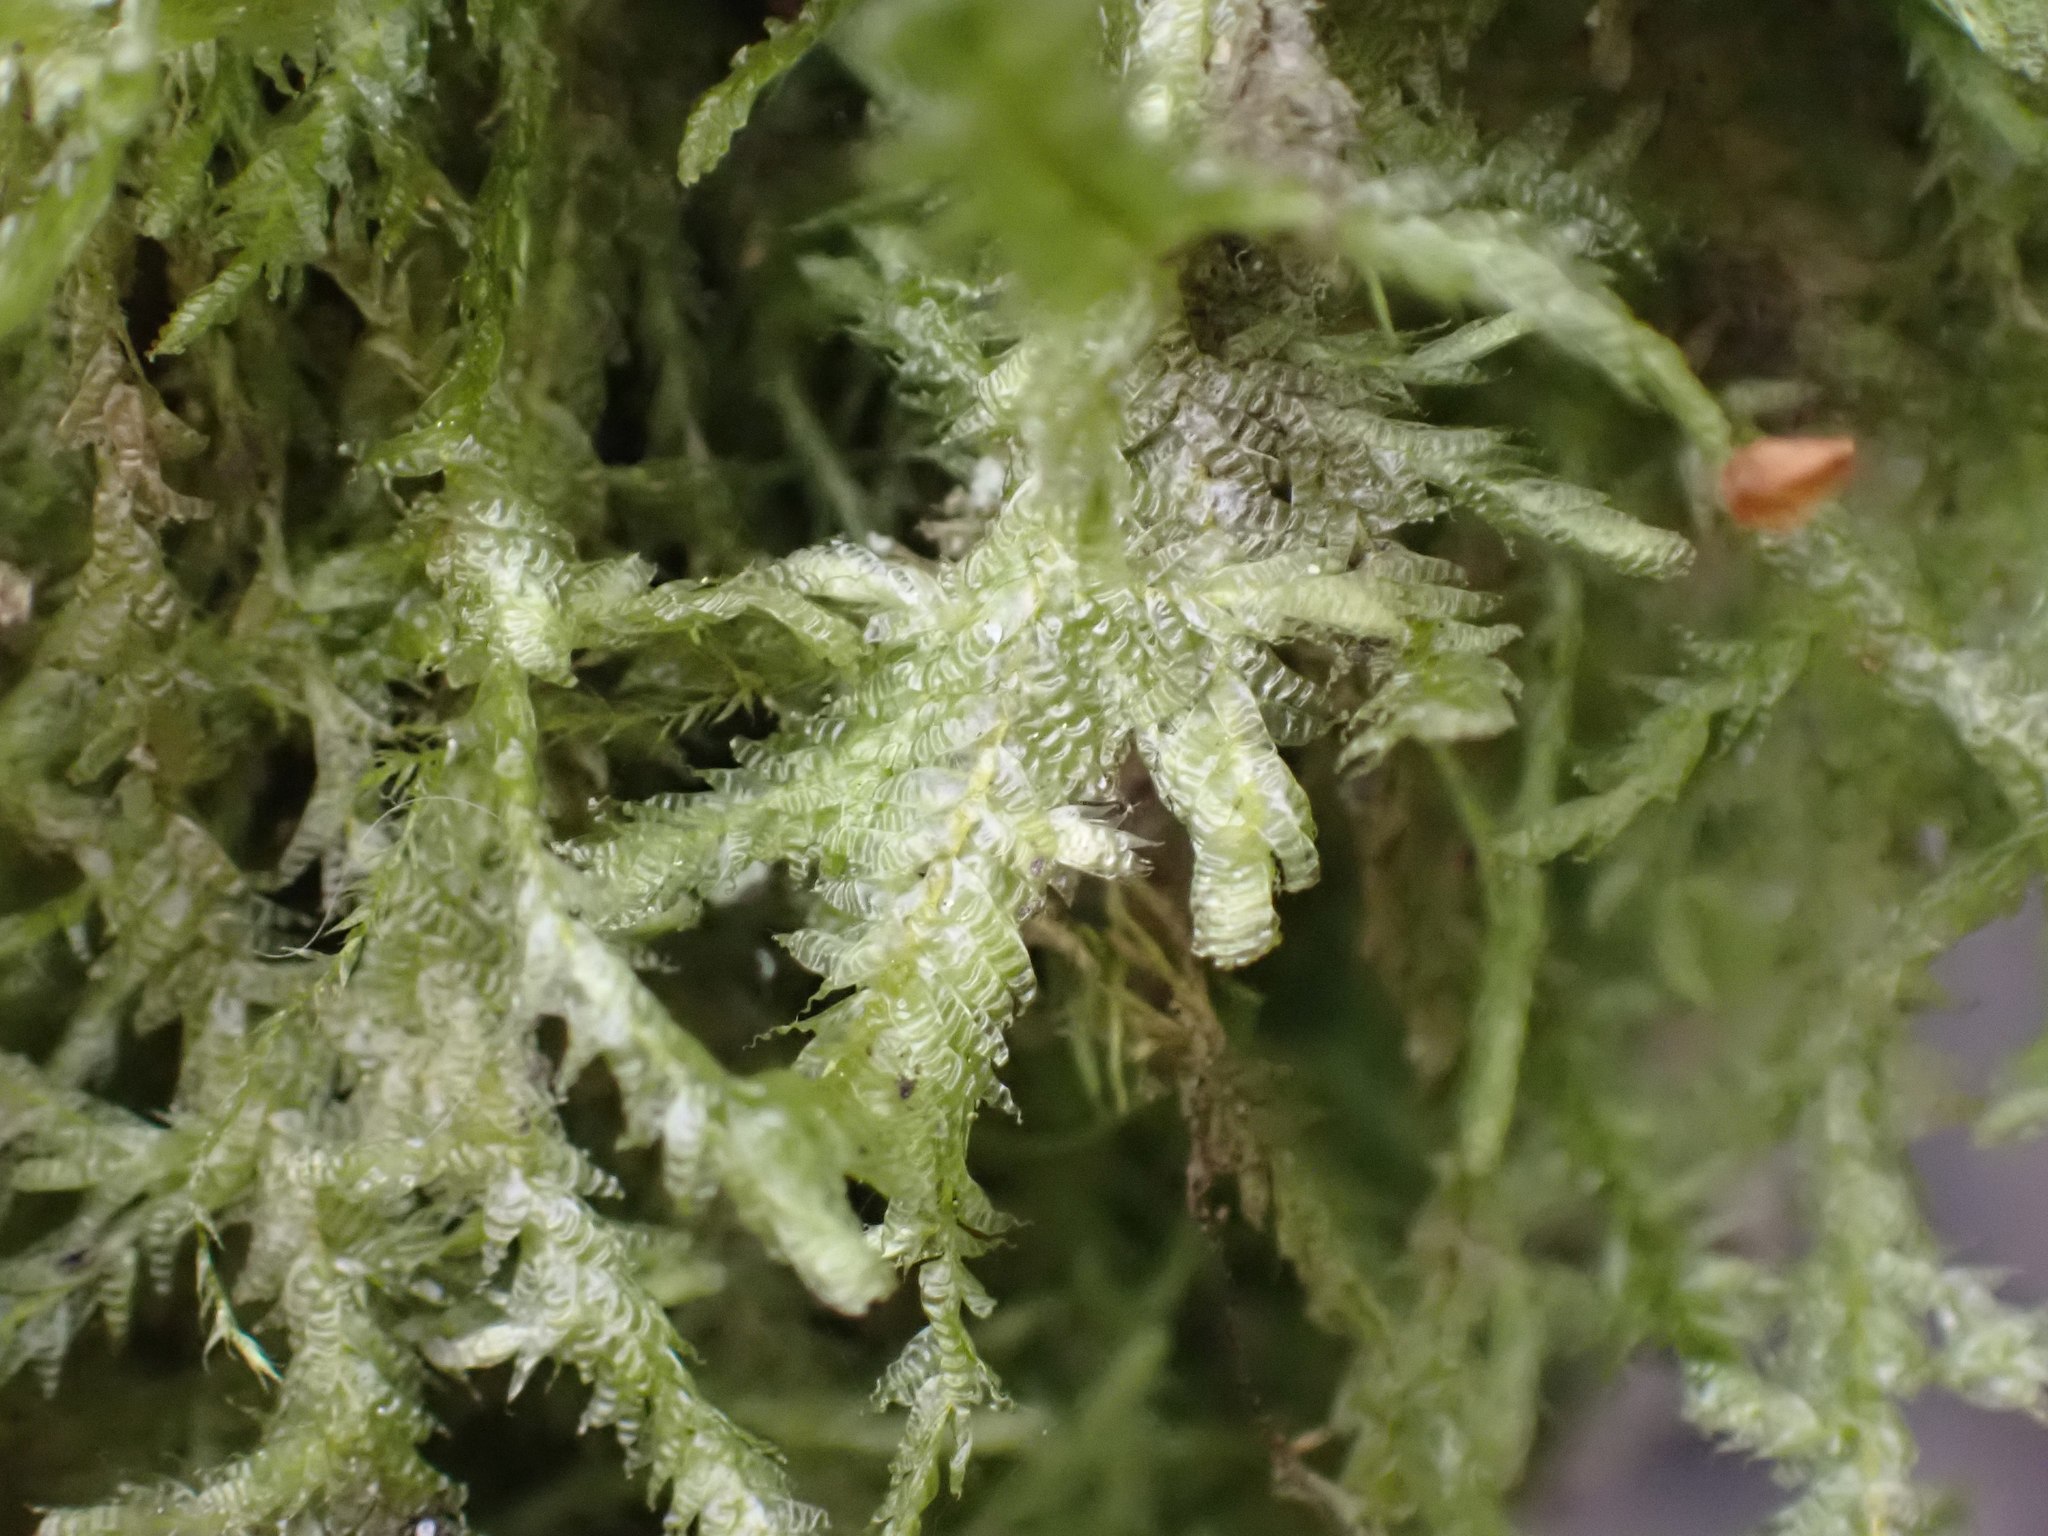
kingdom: Plantae
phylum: Bryophyta
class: Bryopsida
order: Hypnales
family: Neckeraceae
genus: Neckera
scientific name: Neckera douglasii
